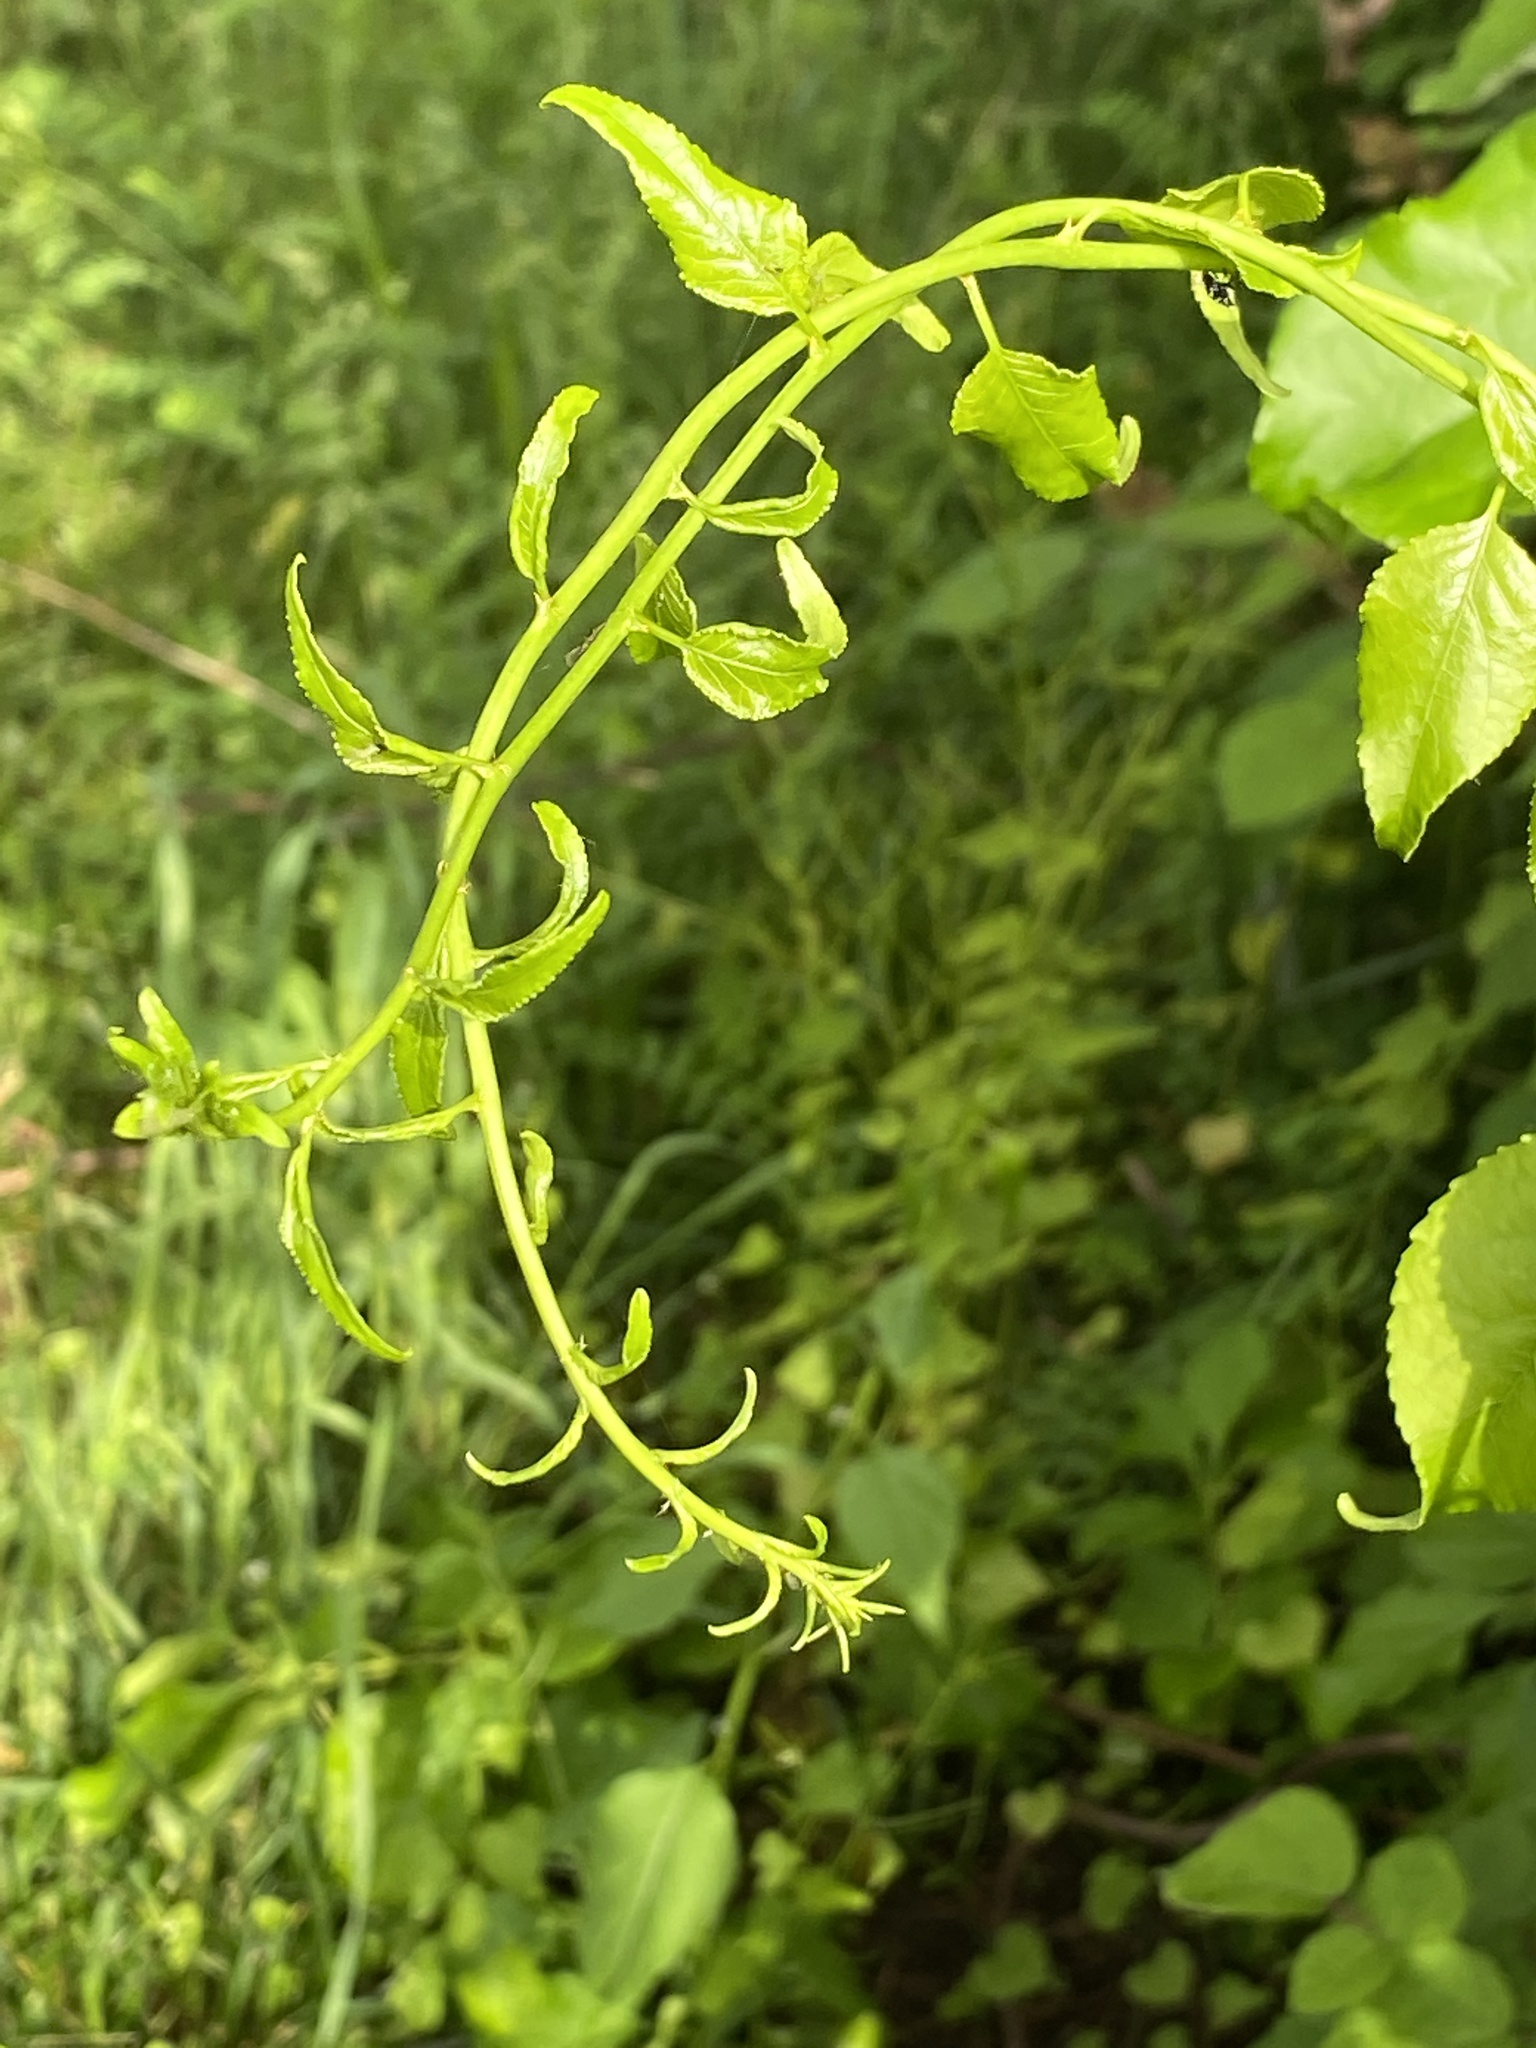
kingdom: Plantae
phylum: Tracheophyta
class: Magnoliopsida
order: Celastrales
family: Celastraceae
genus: Celastrus
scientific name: Celastrus orbiculatus
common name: Oriental bittersweet
